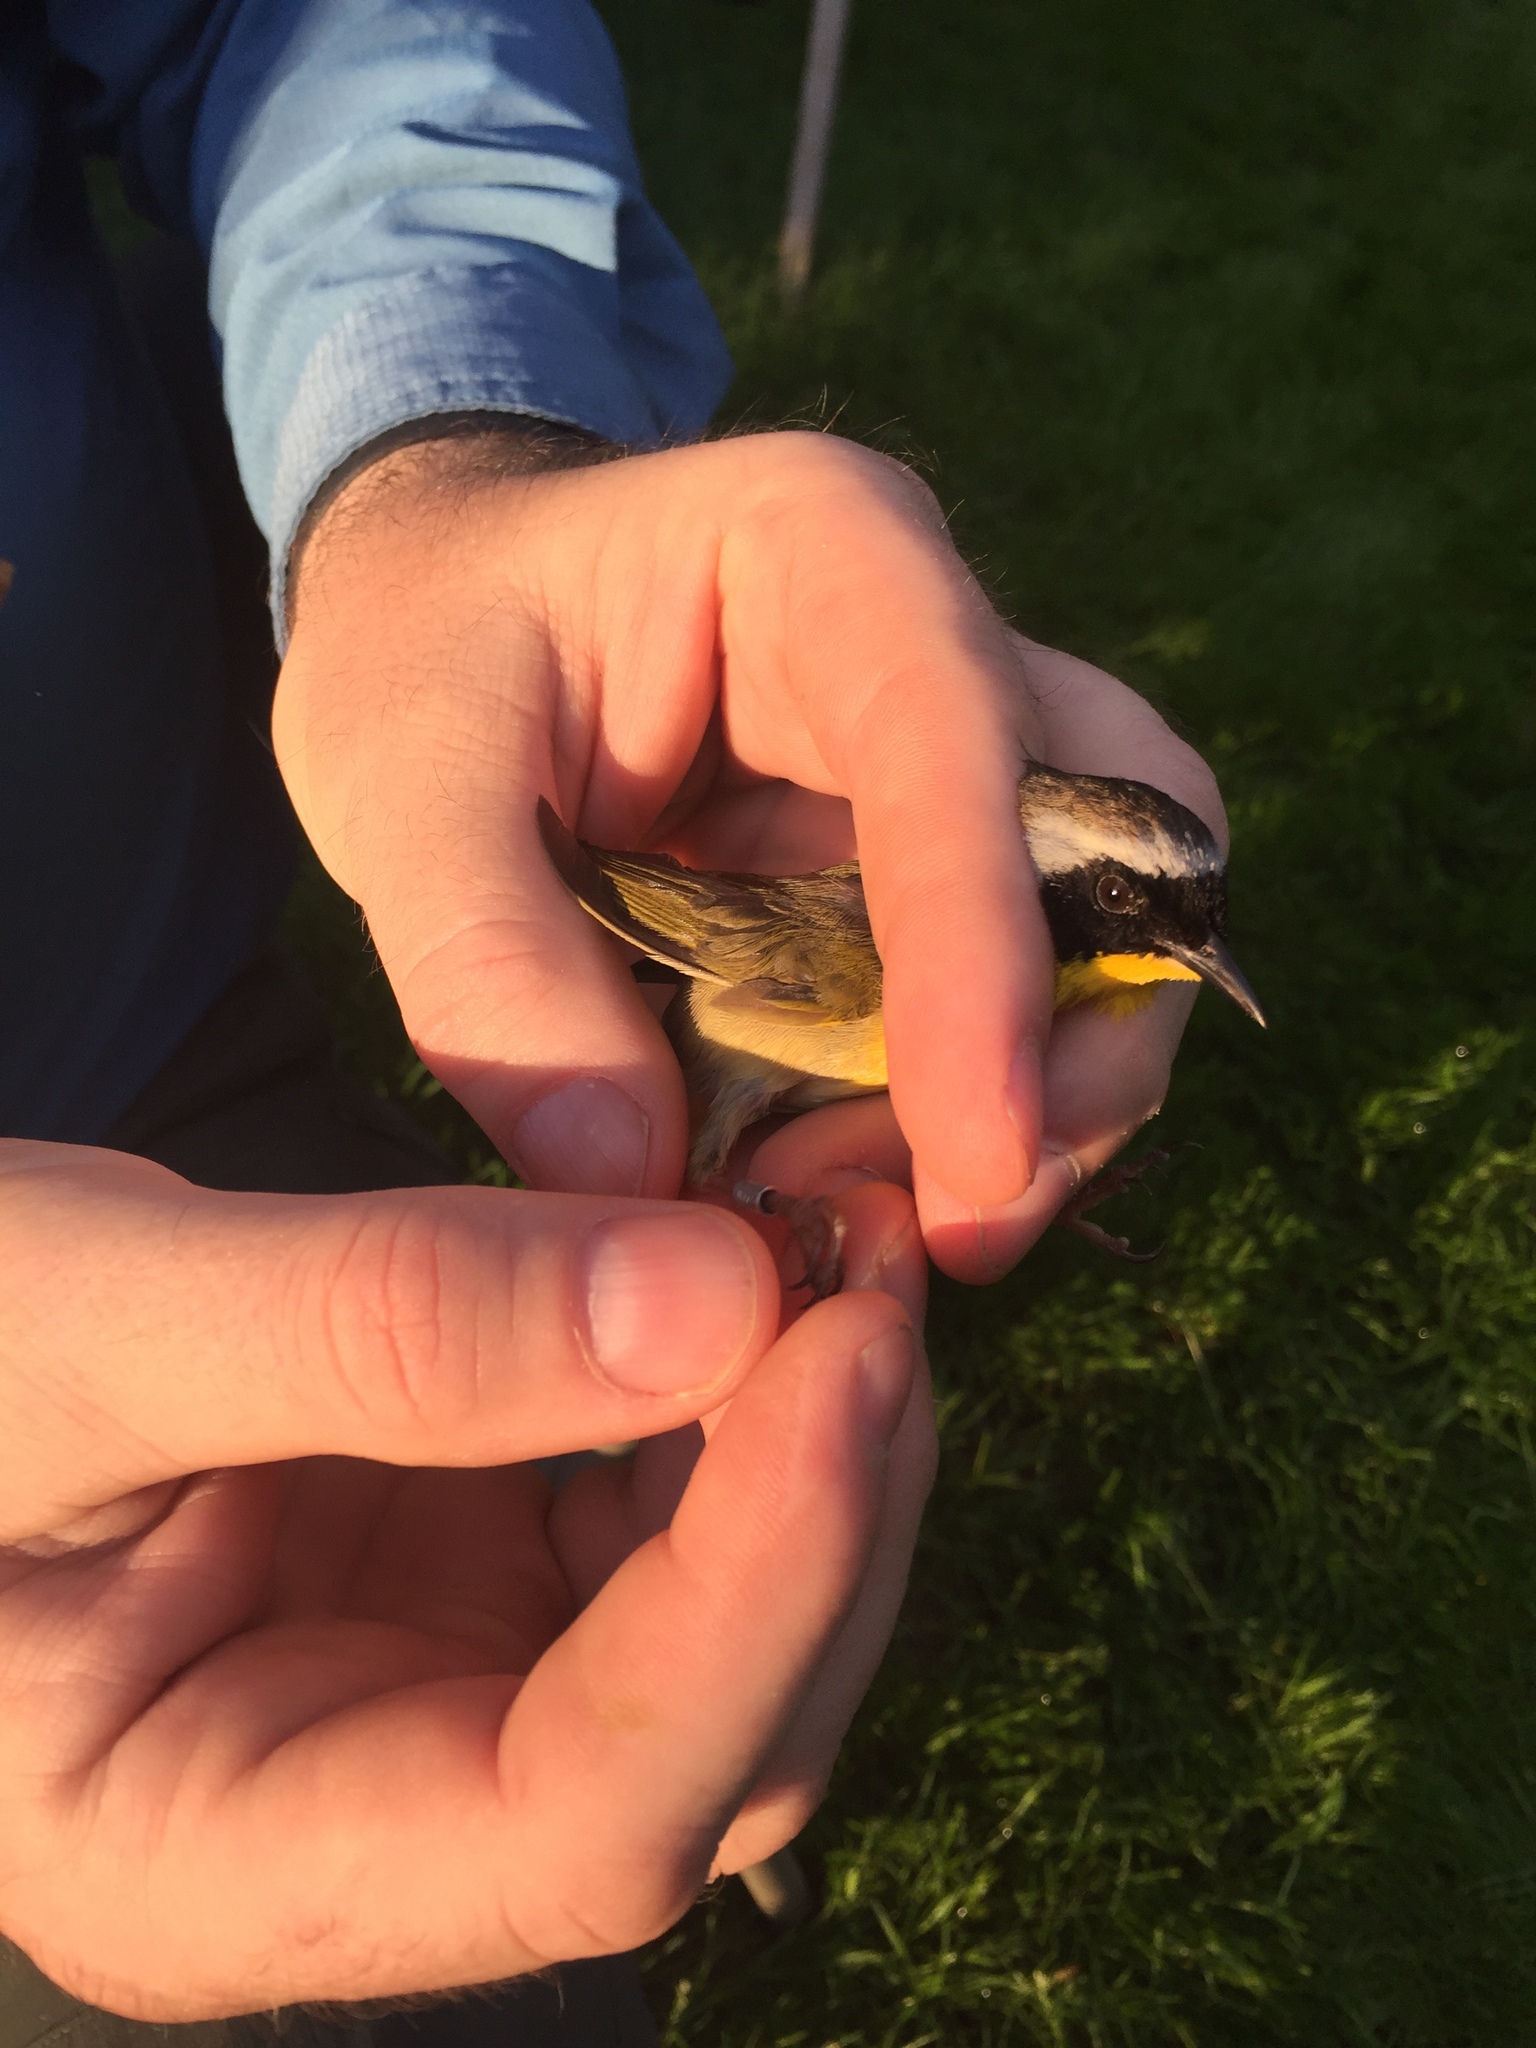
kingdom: Animalia
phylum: Chordata
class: Aves
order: Passeriformes
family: Parulidae
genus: Geothlypis
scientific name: Geothlypis trichas
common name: Common yellowthroat
